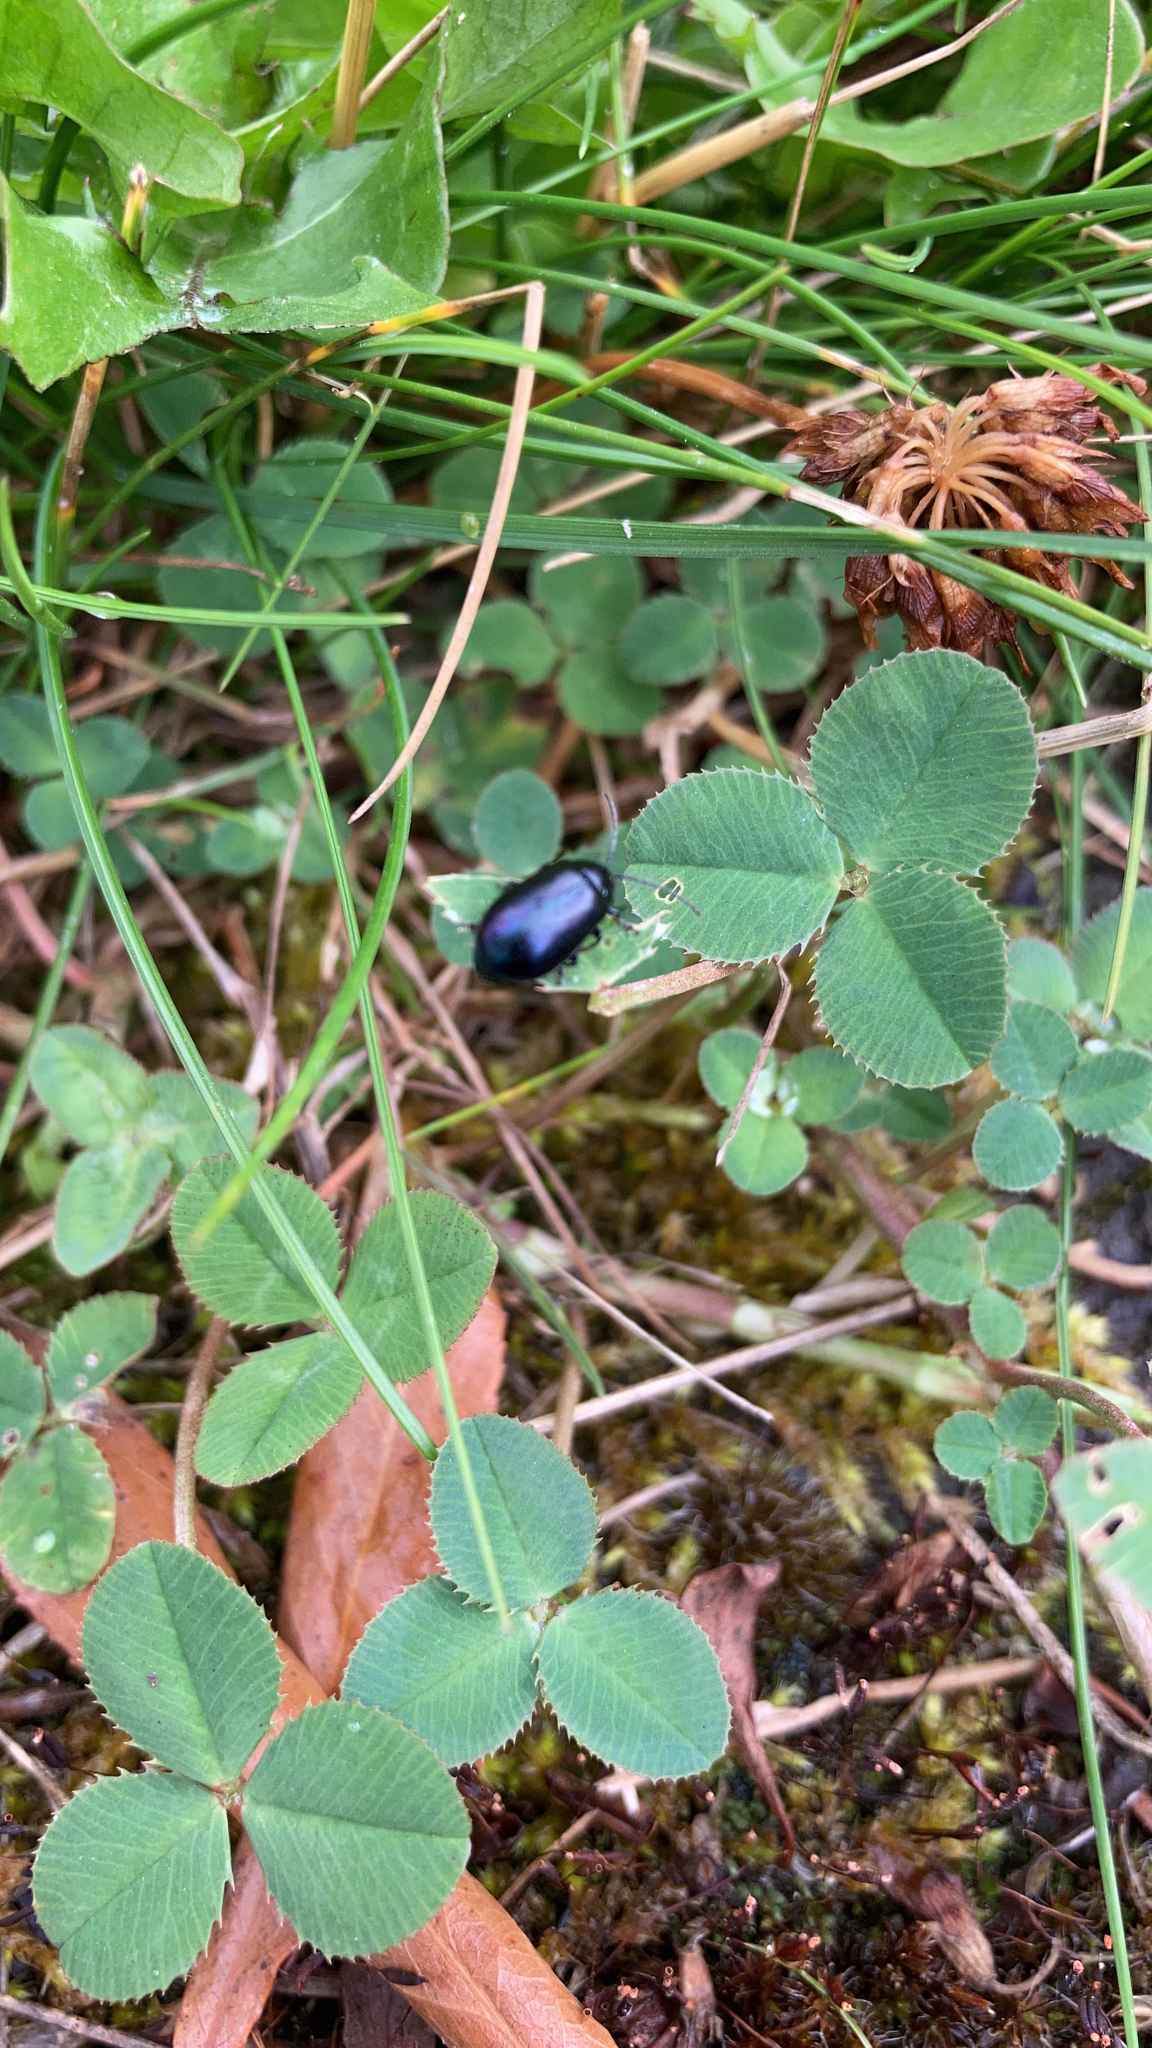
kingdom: Animalia
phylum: Arthropoda
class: Insecta
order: Coleoptera
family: Chrysomelidae
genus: Agelastica
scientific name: Agelastica alni
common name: Alder leaf beetle
